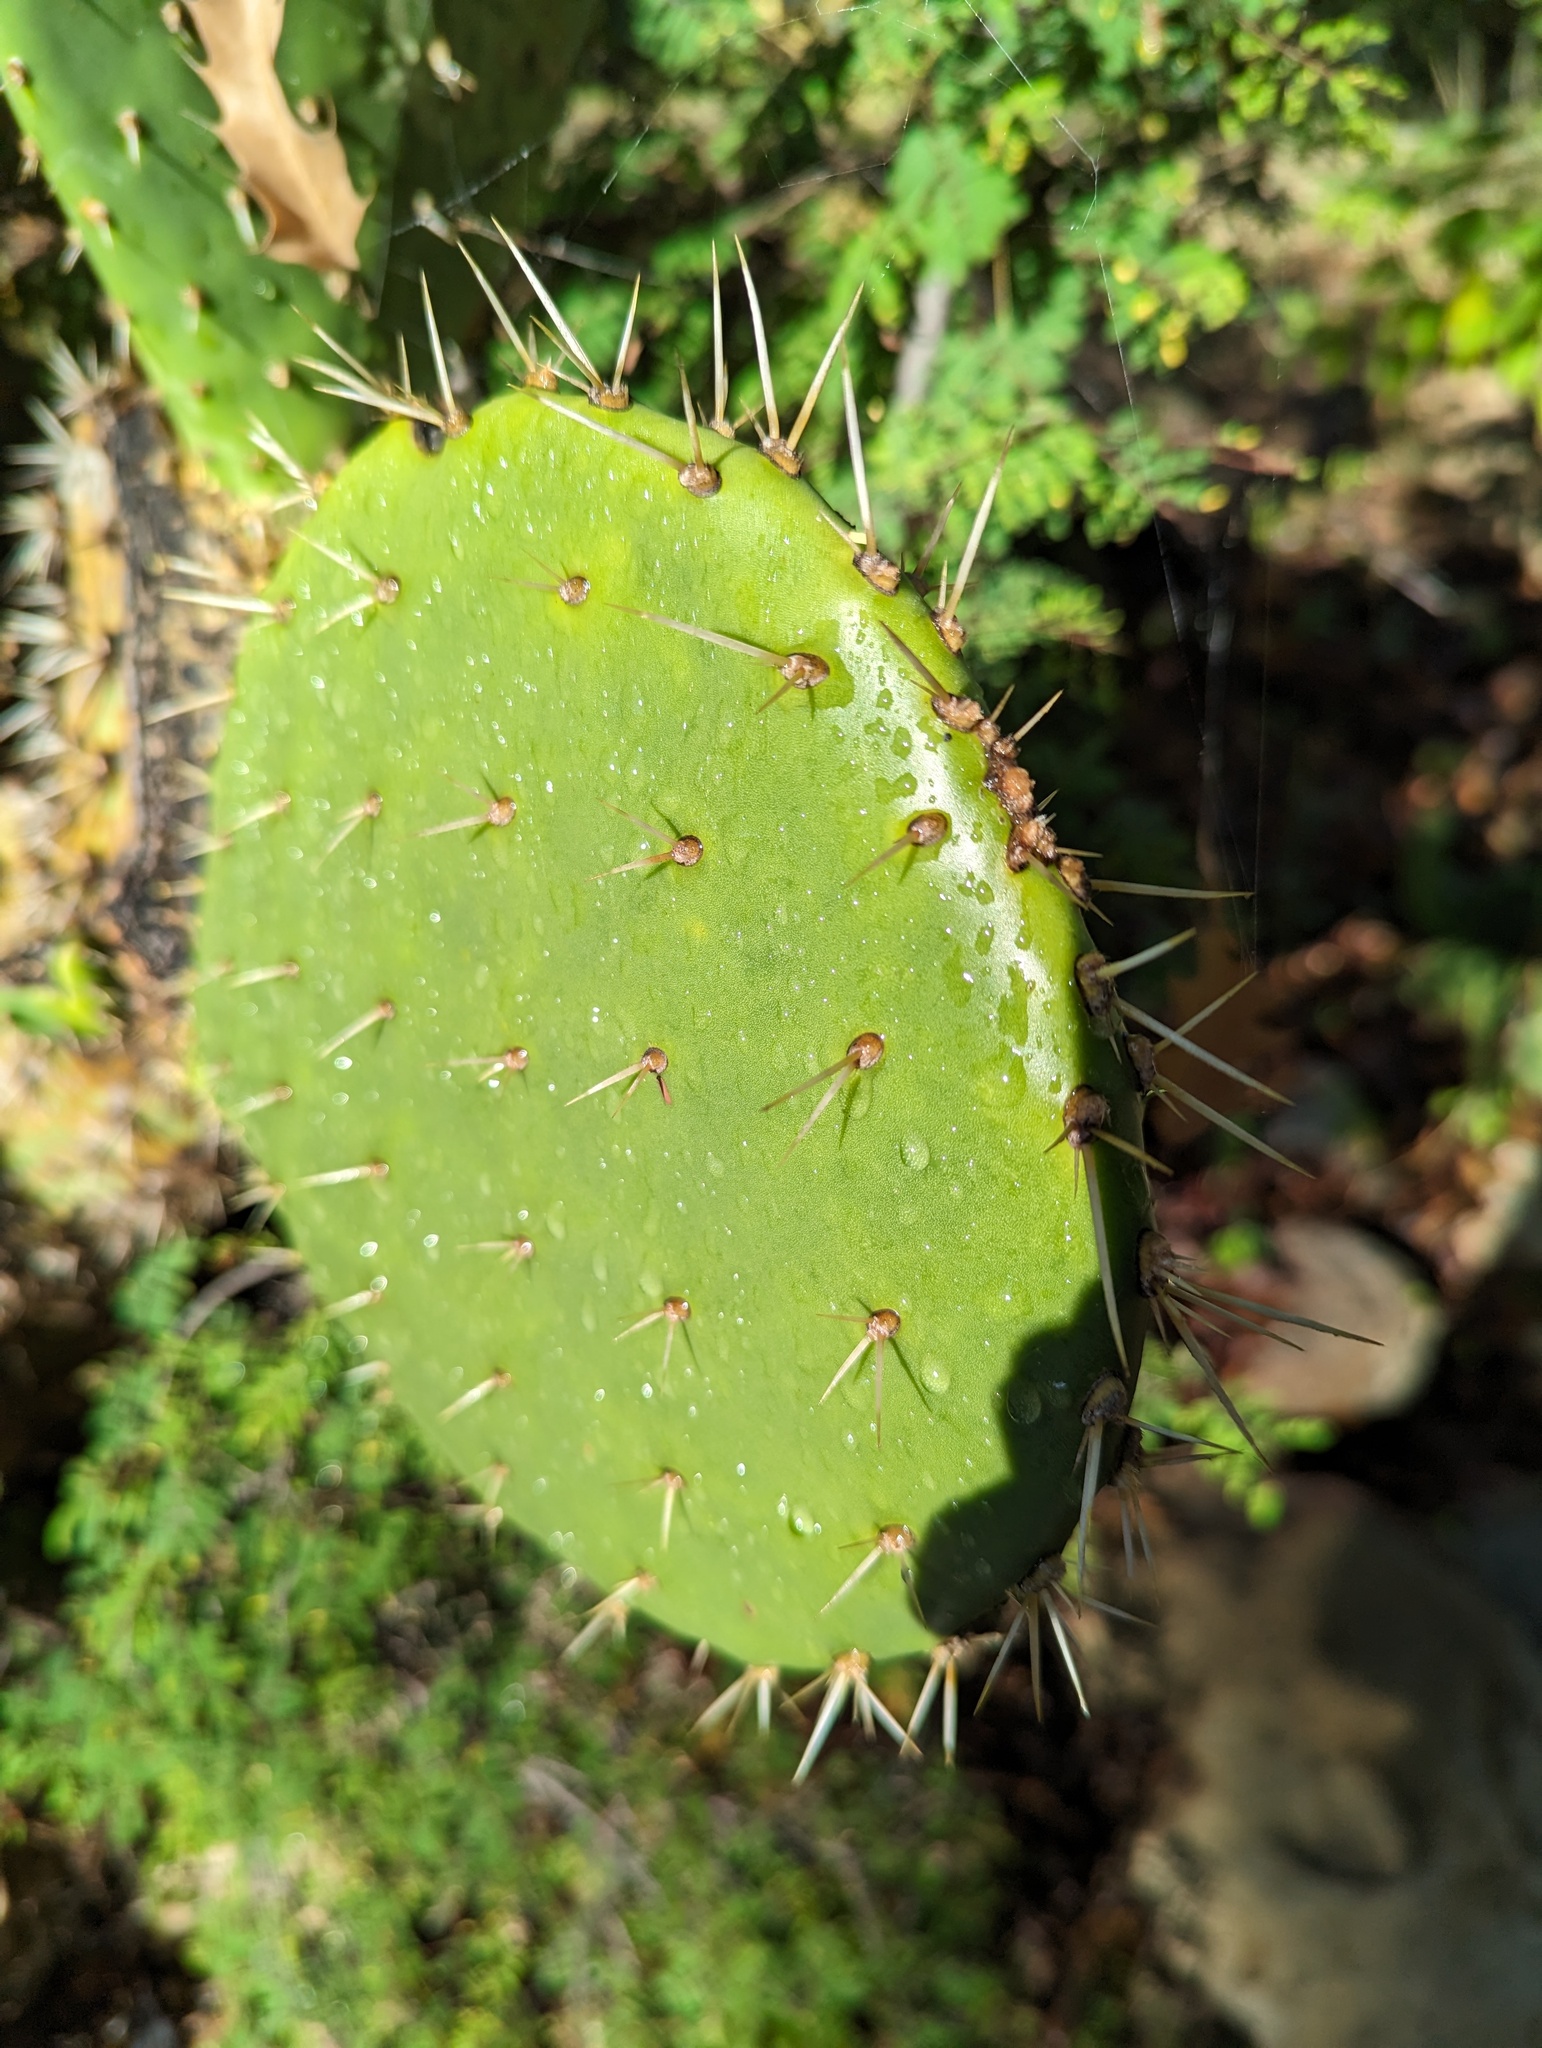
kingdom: Plantae
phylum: Tracheophyta
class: Magnoliopsida
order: Caryophyllales
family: Cactaceae
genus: Opuntia
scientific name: Opuntia sierralagunensis
